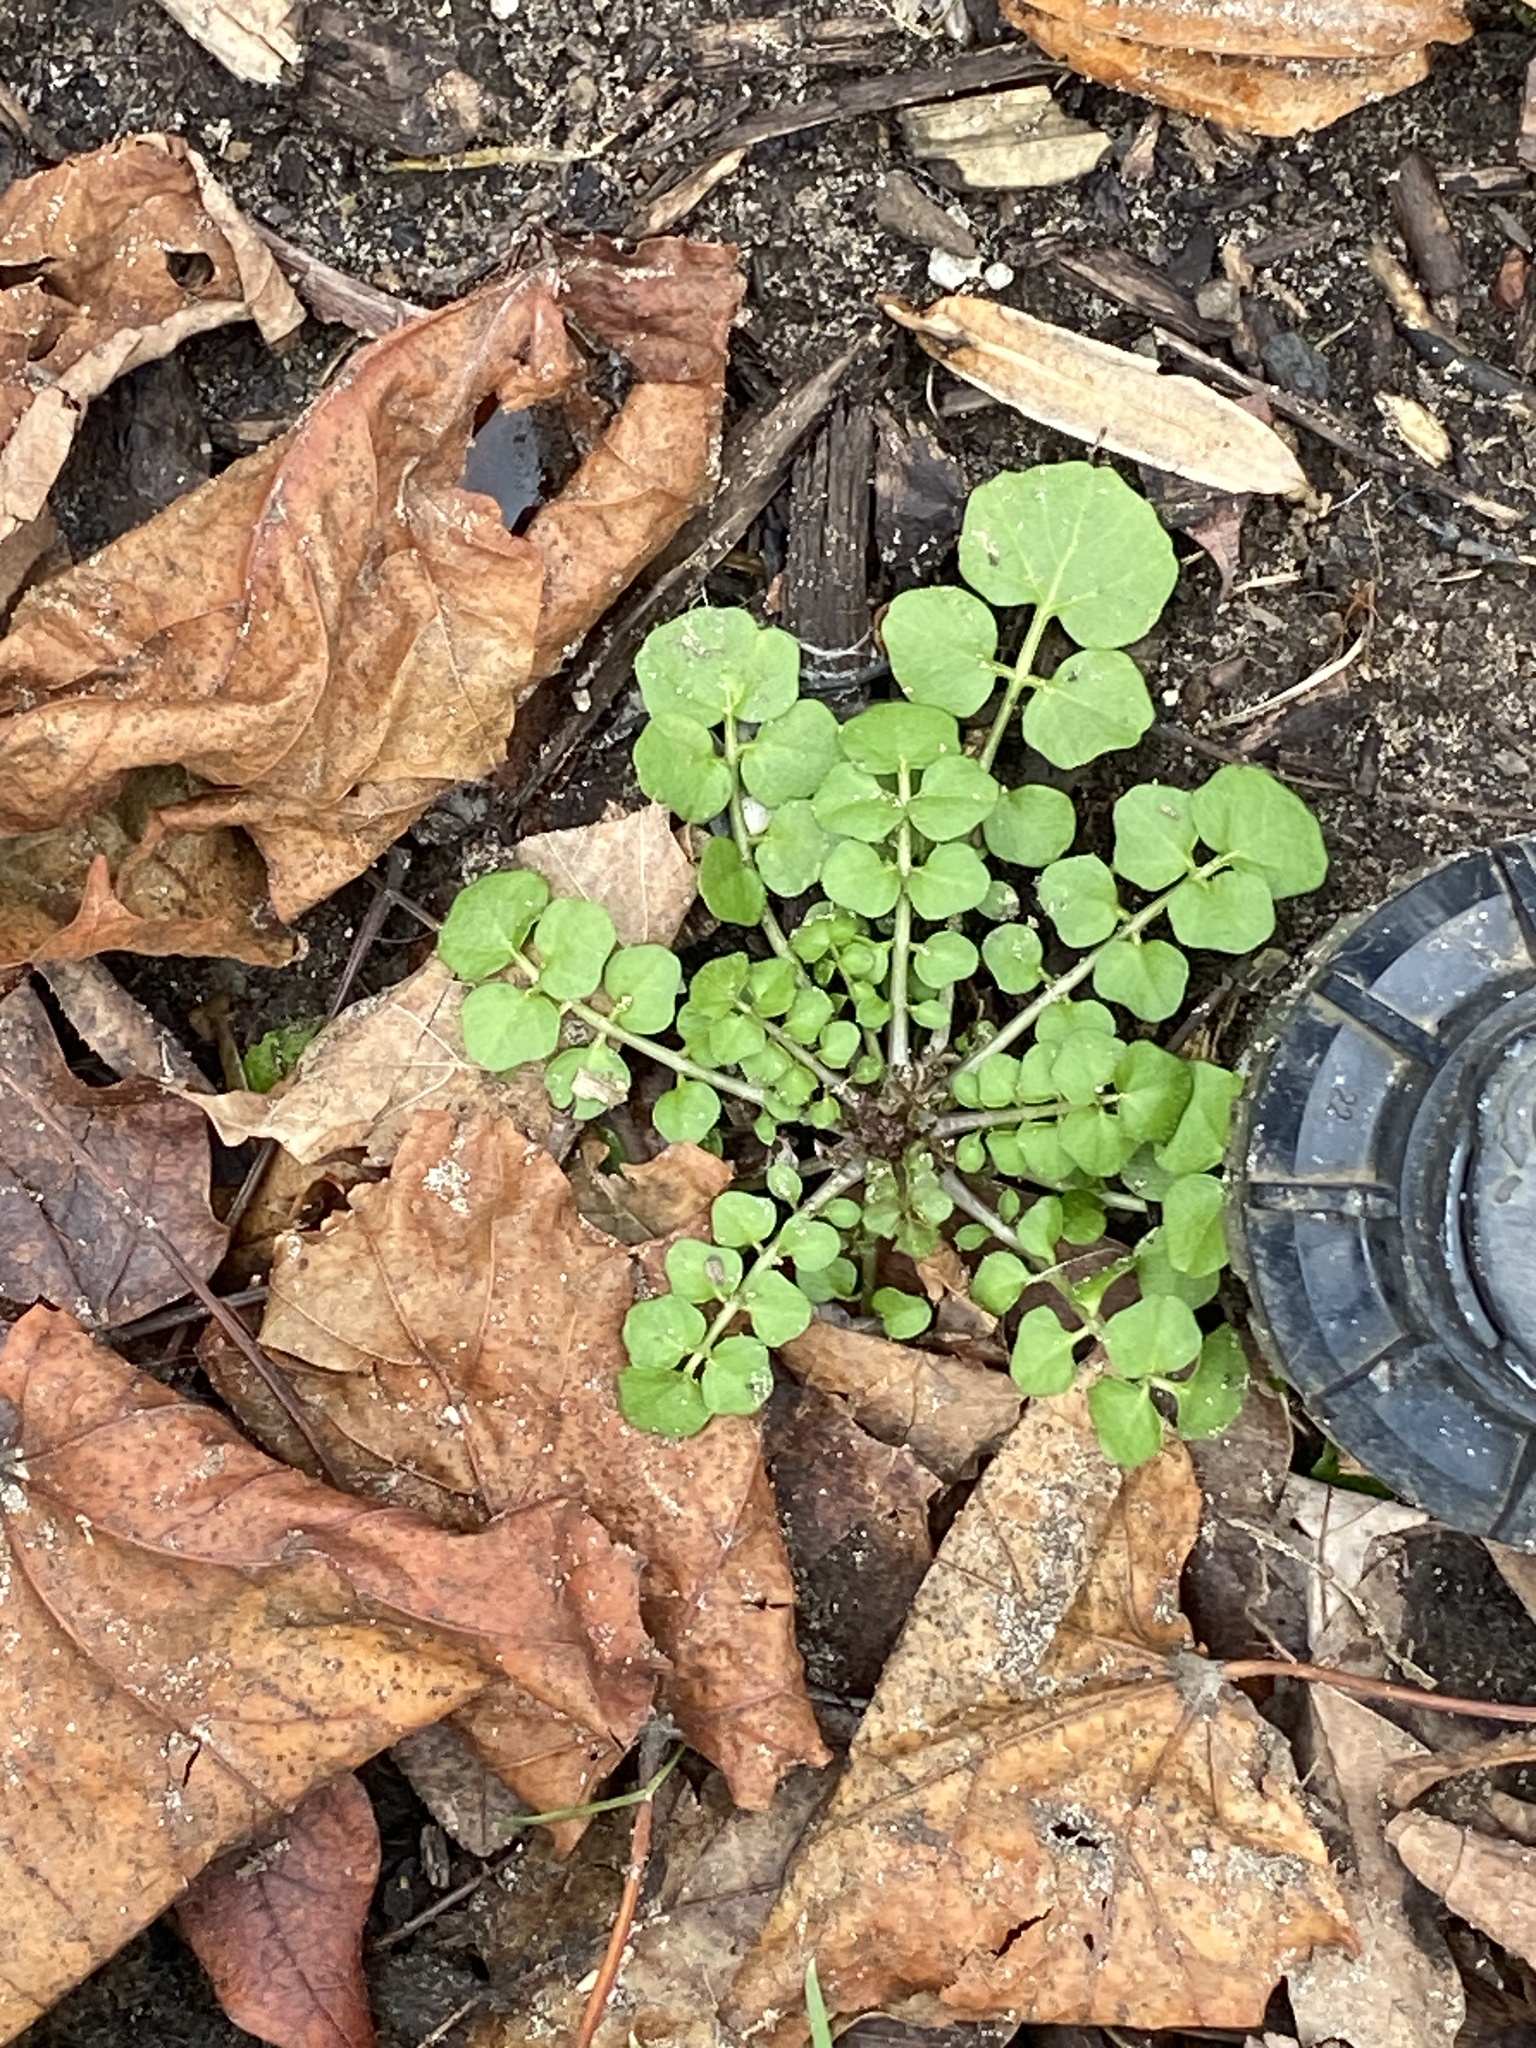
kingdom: Plantae
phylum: Tracheophyta
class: Magnoliopsida
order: Brassicales
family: Brassicaceae
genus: Cardamine
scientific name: Cardamine hirsuta
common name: Hairy bittercress
